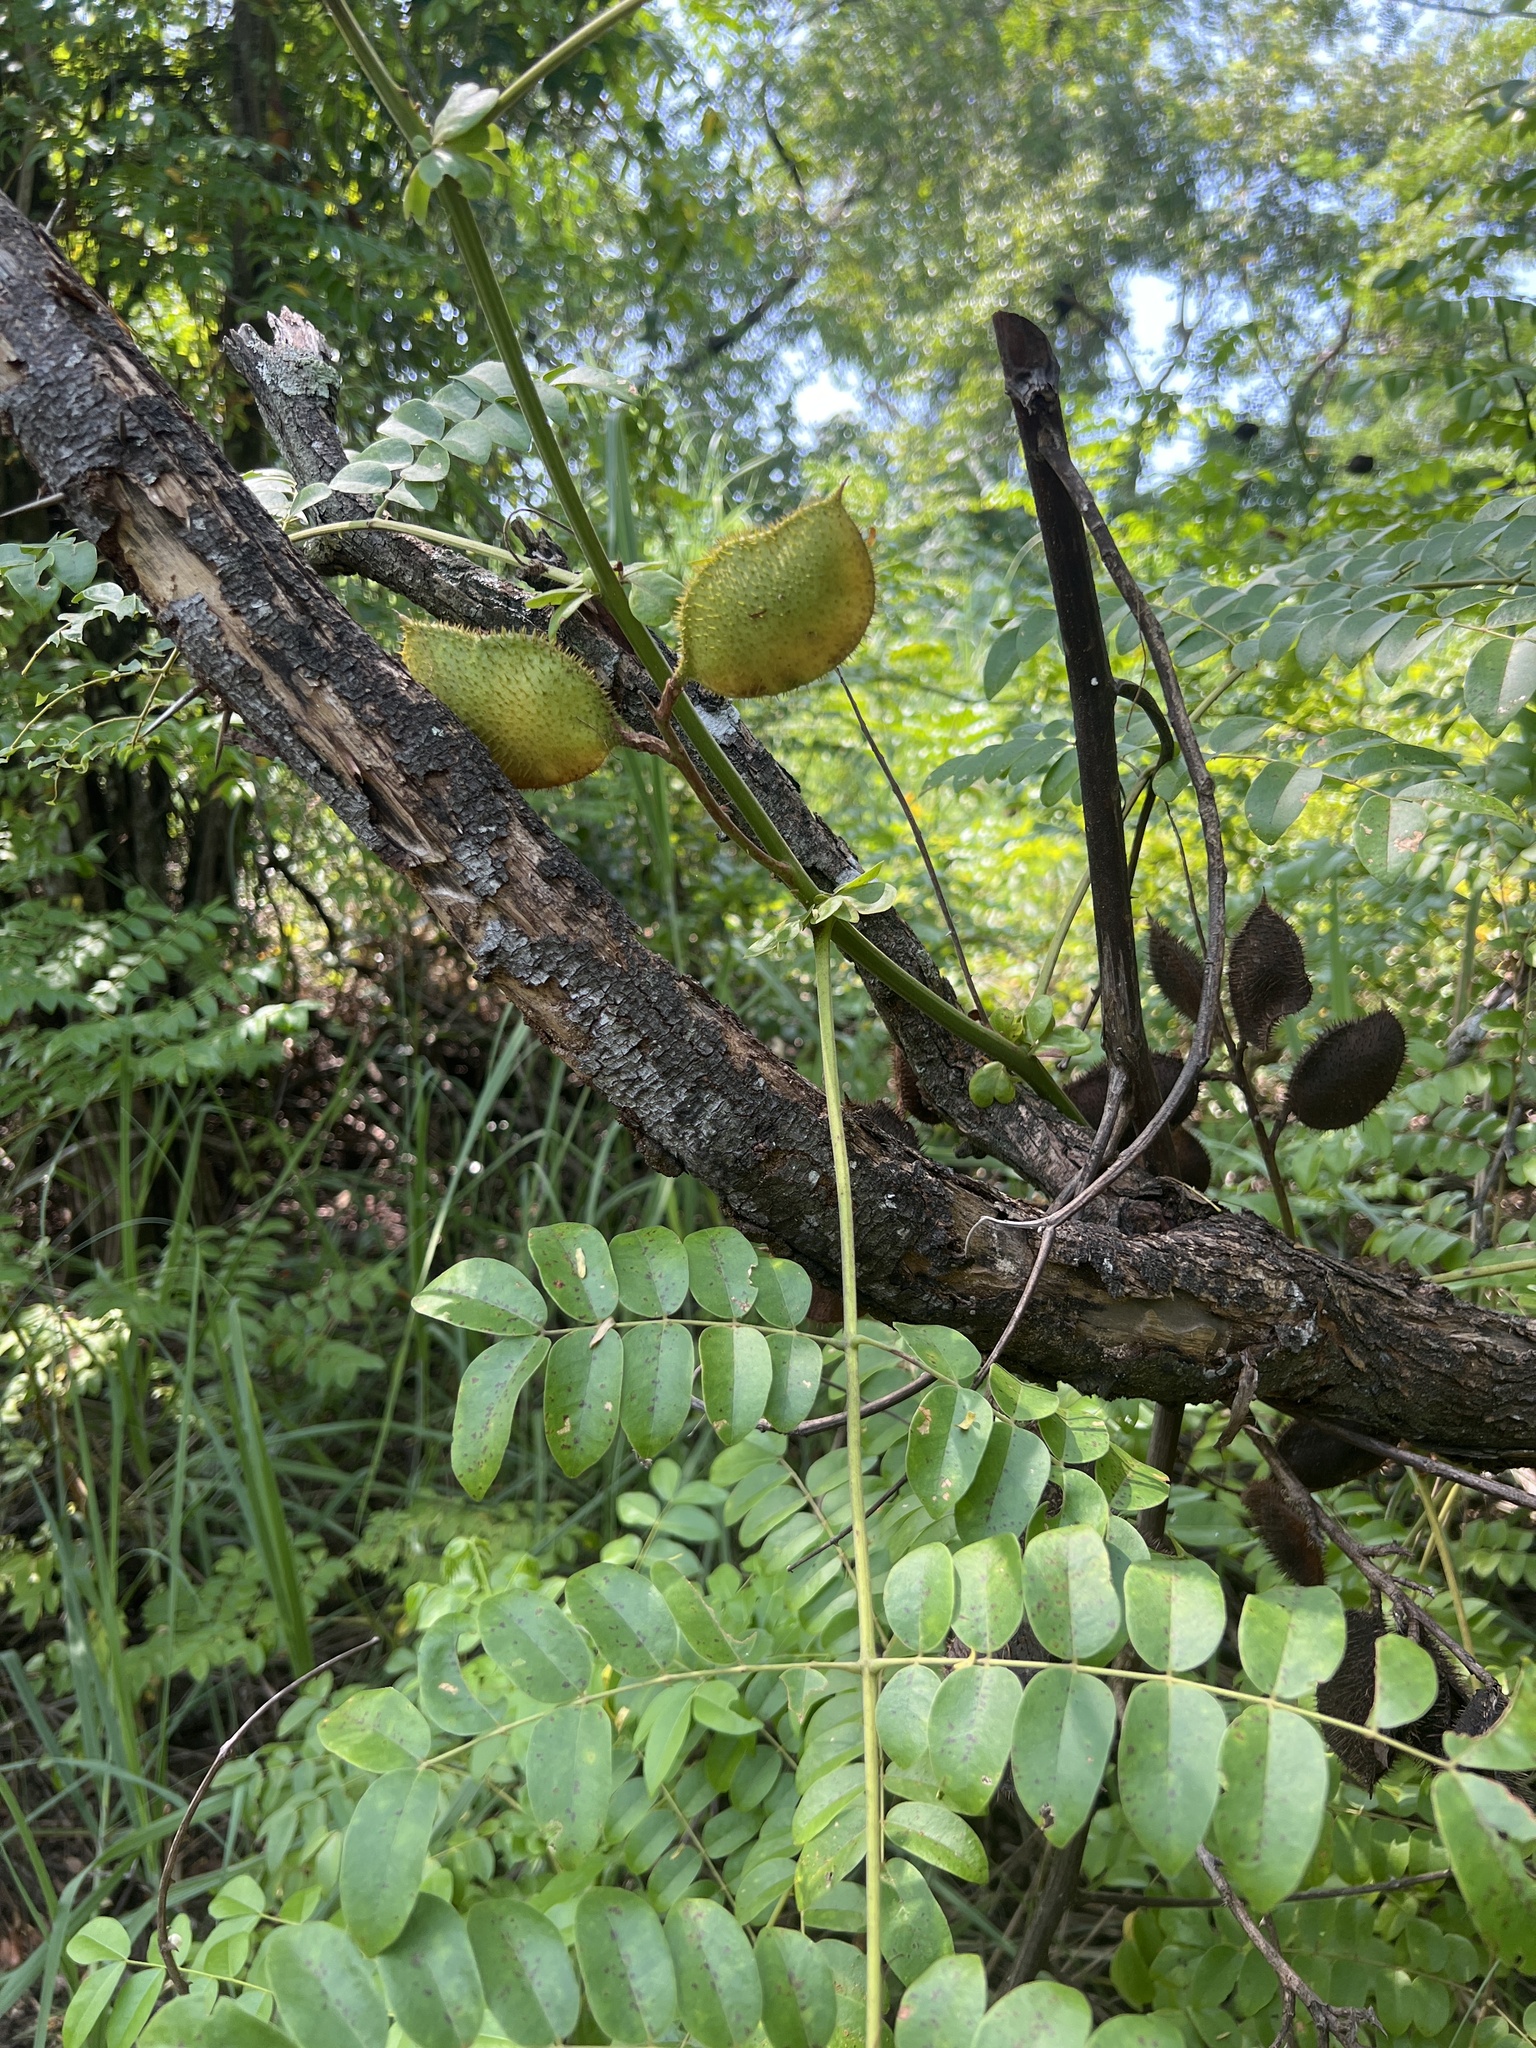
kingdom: Plantae
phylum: Tracheophyta
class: Magnoliopsida
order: Fabales
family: Fabaceae
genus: Guilandina
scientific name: Guilandina bonduc
